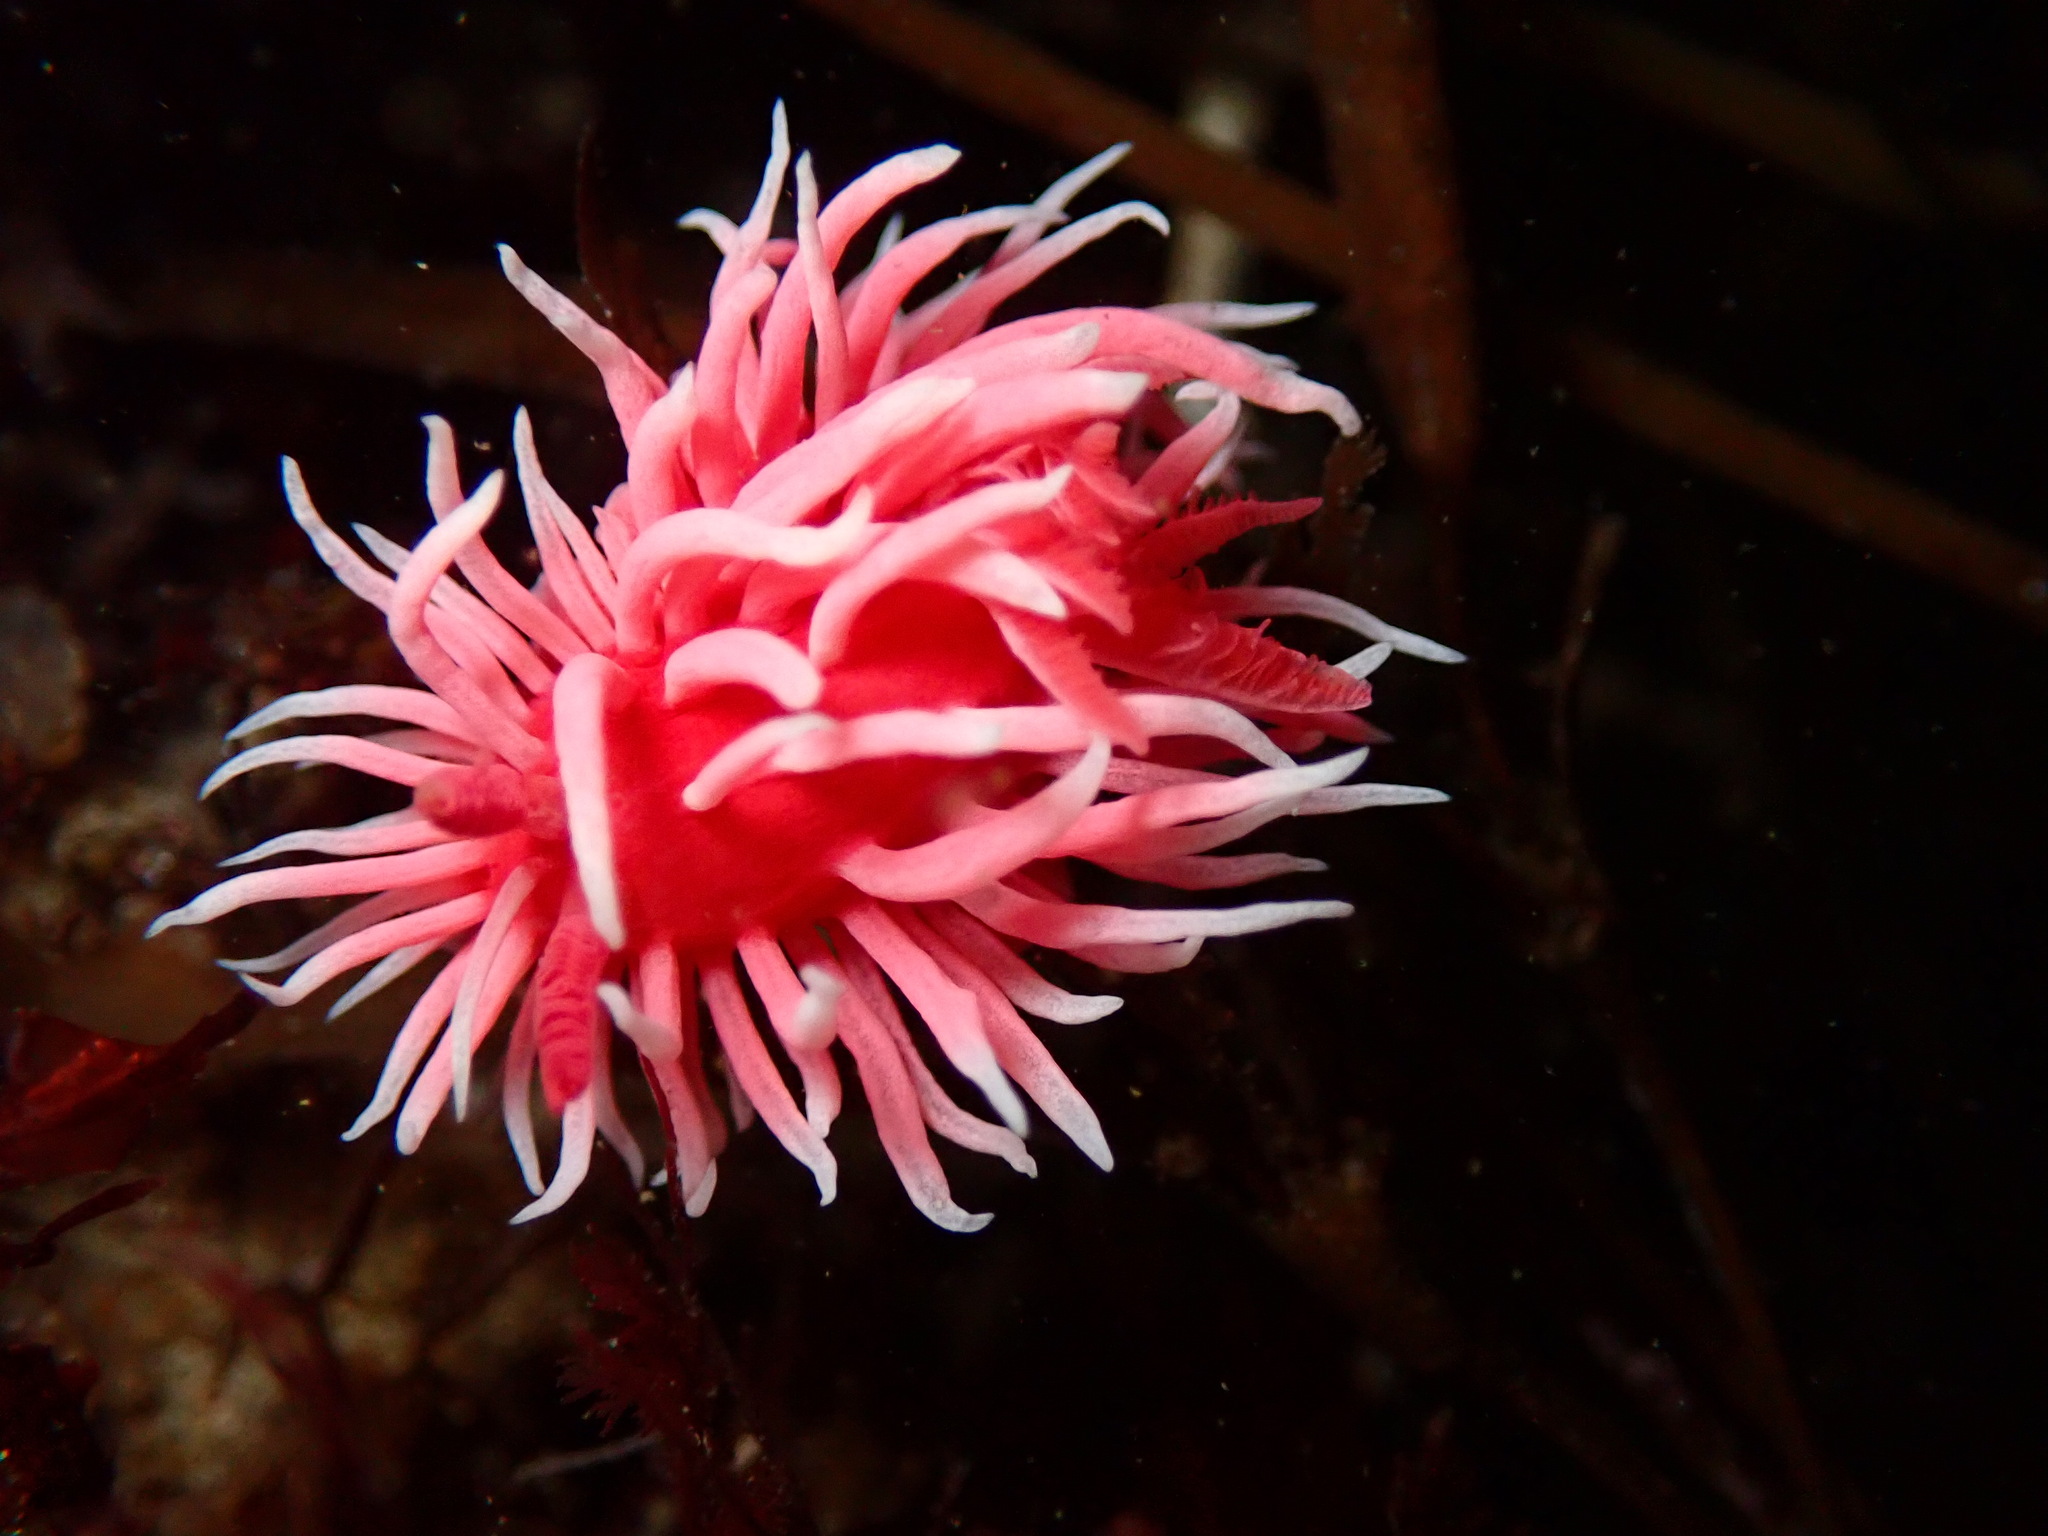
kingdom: Animalia
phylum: Mollusca
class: Gastropoda
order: Nudibranchia
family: Goniodorididae
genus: Okenia
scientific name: Okenia
